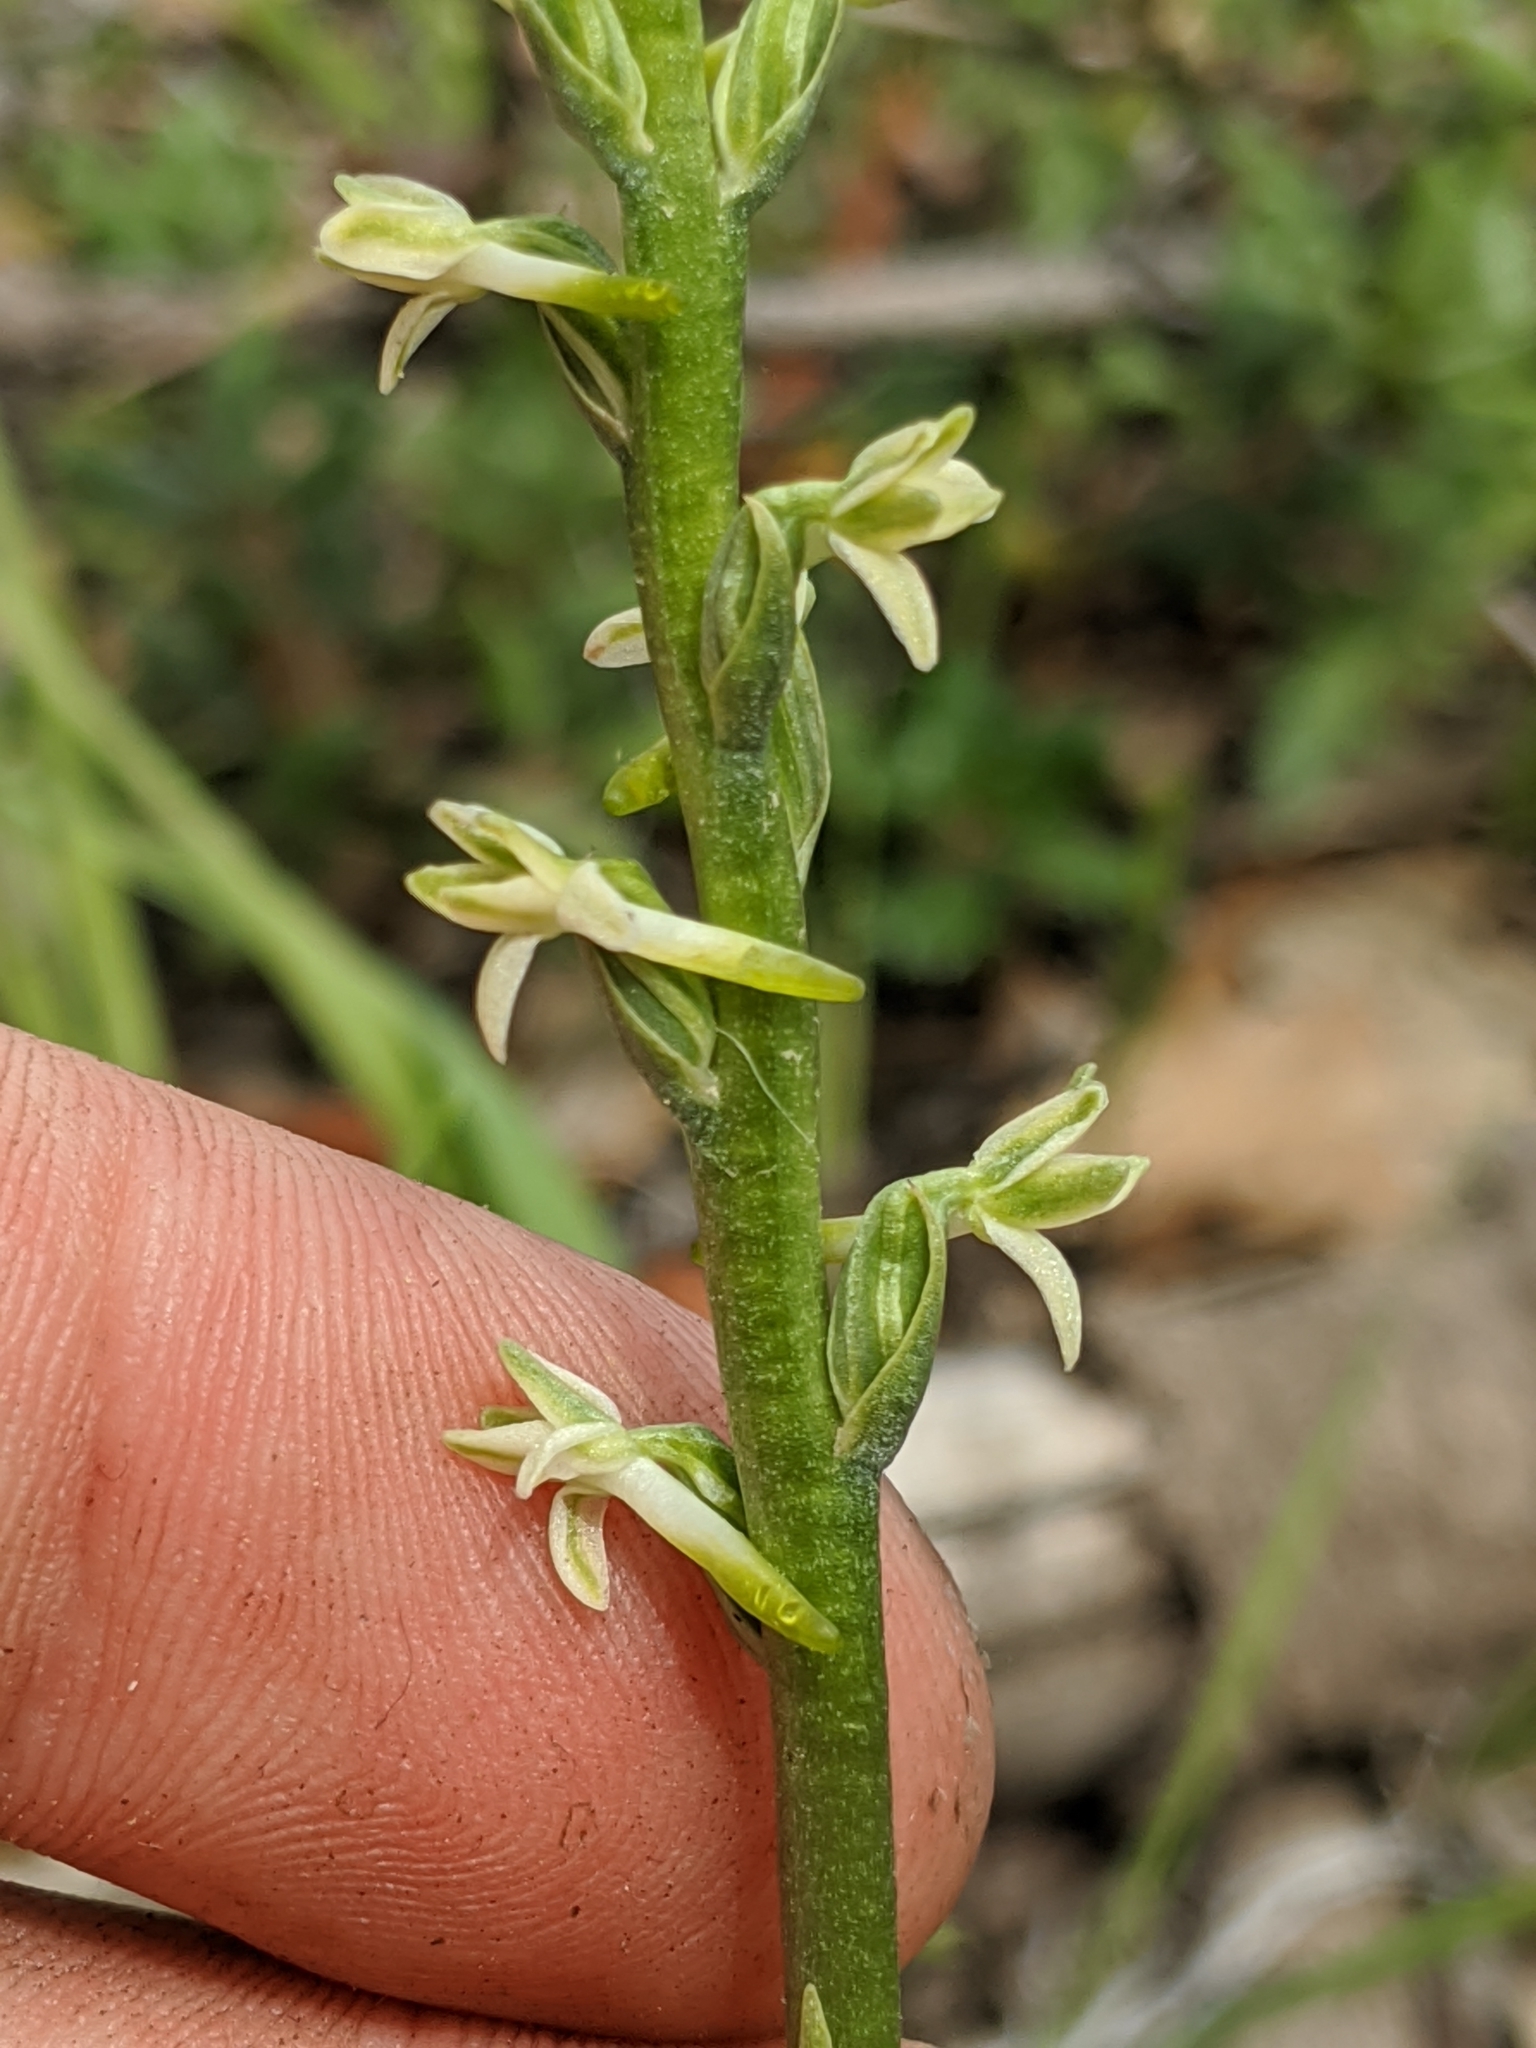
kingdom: Plantae
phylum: Tracheophyta
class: Liliopsida
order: Asparagales
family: Orchidaceae
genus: Platanthera
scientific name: Platanthera transversa
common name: Royal rein orchid
